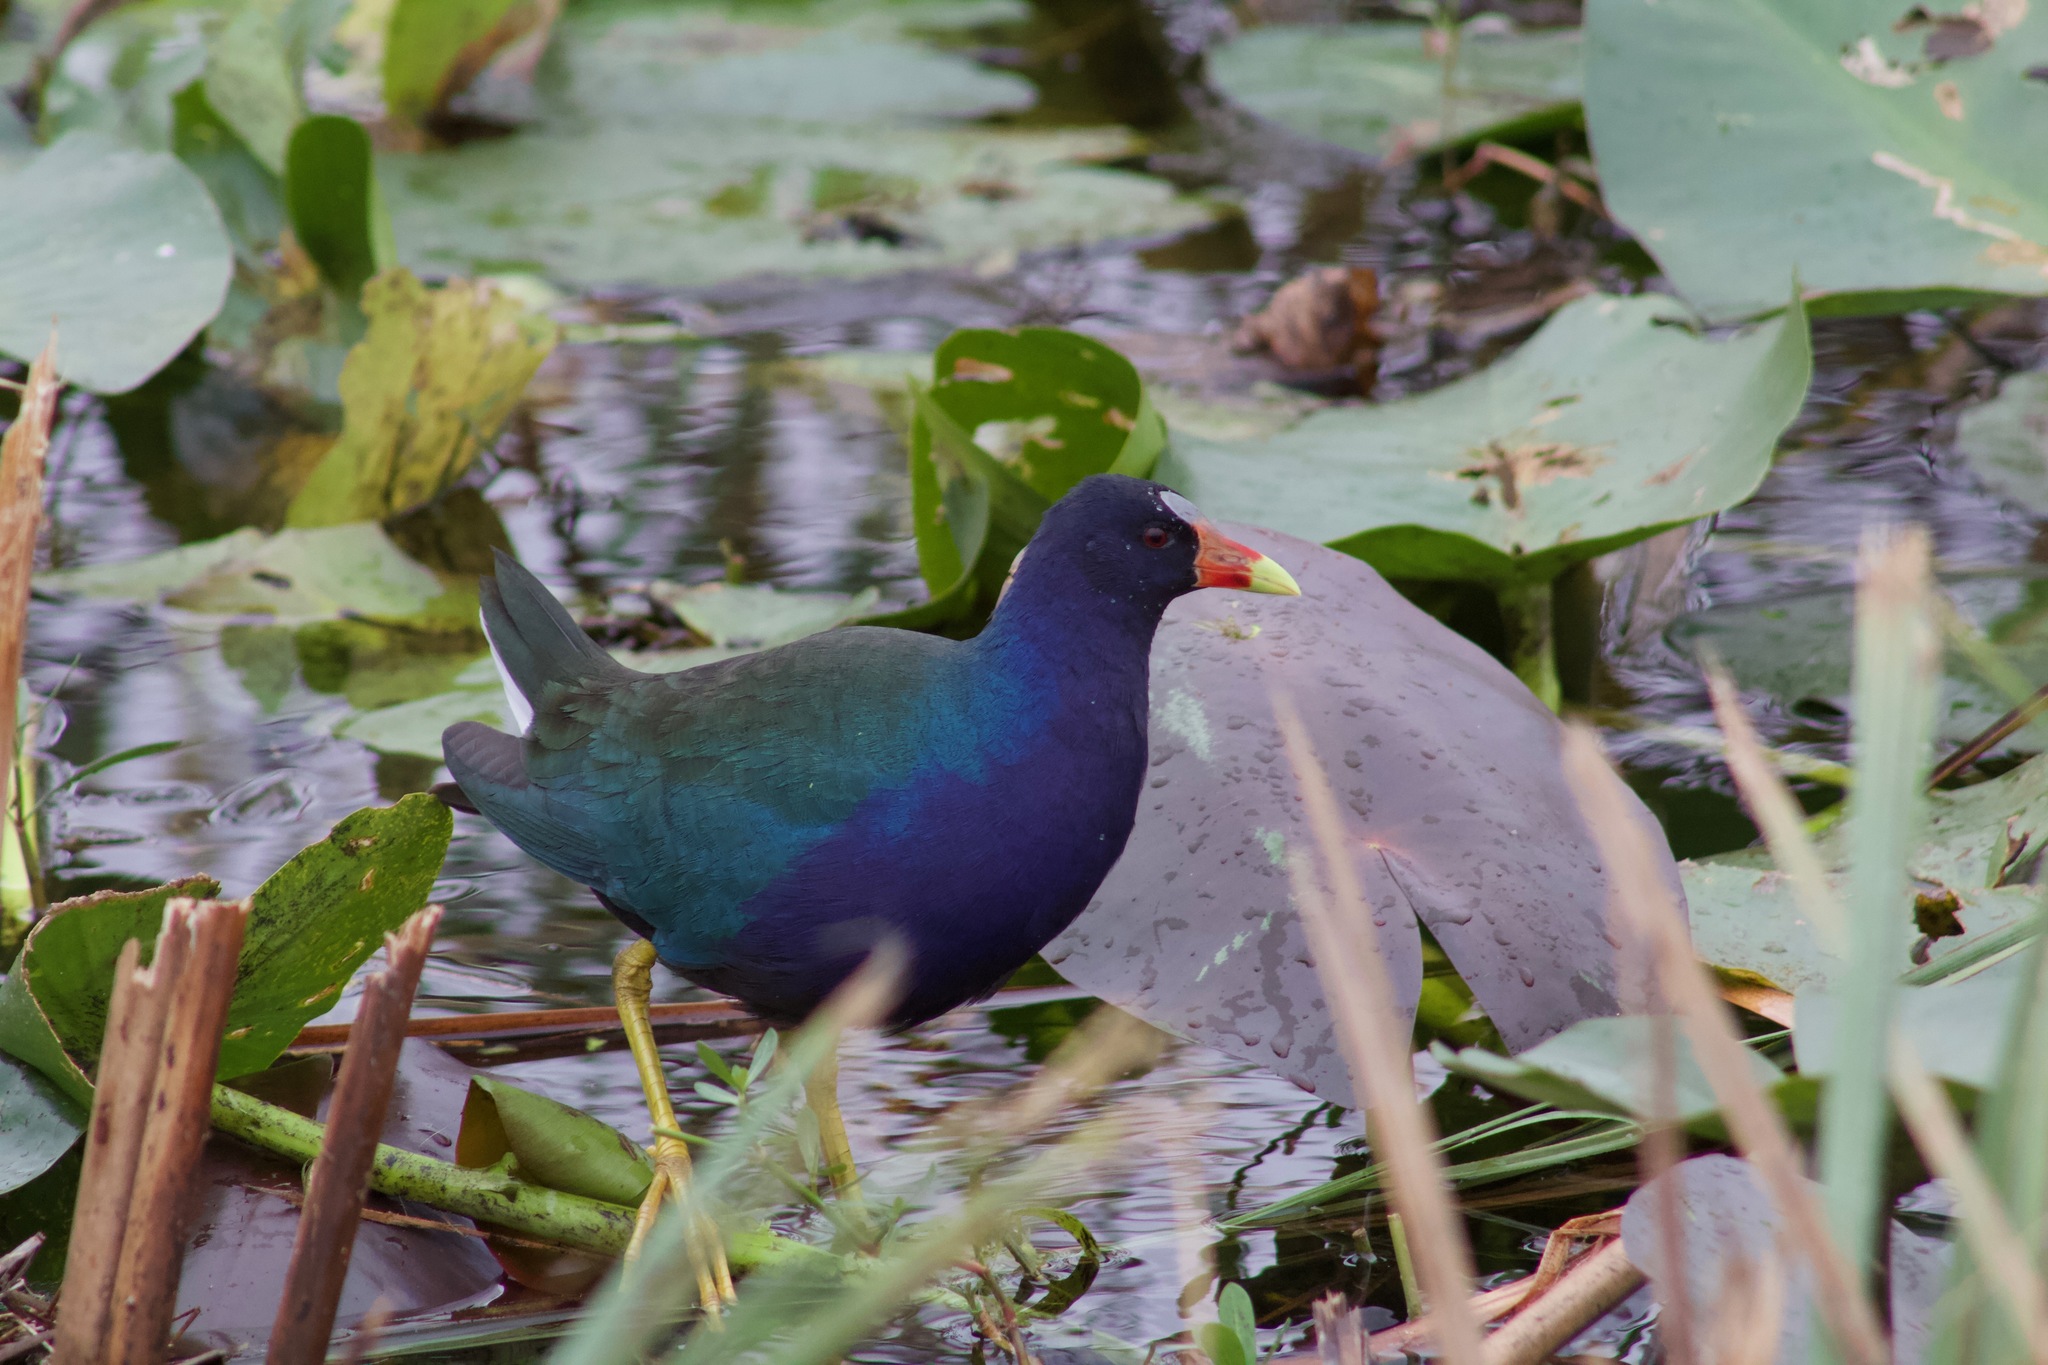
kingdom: Animalia
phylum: Chordata
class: Aves
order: Gruiformes
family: Rallidae
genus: Porphyrio
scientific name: Porphyrio martinica
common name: Purple gallinule
